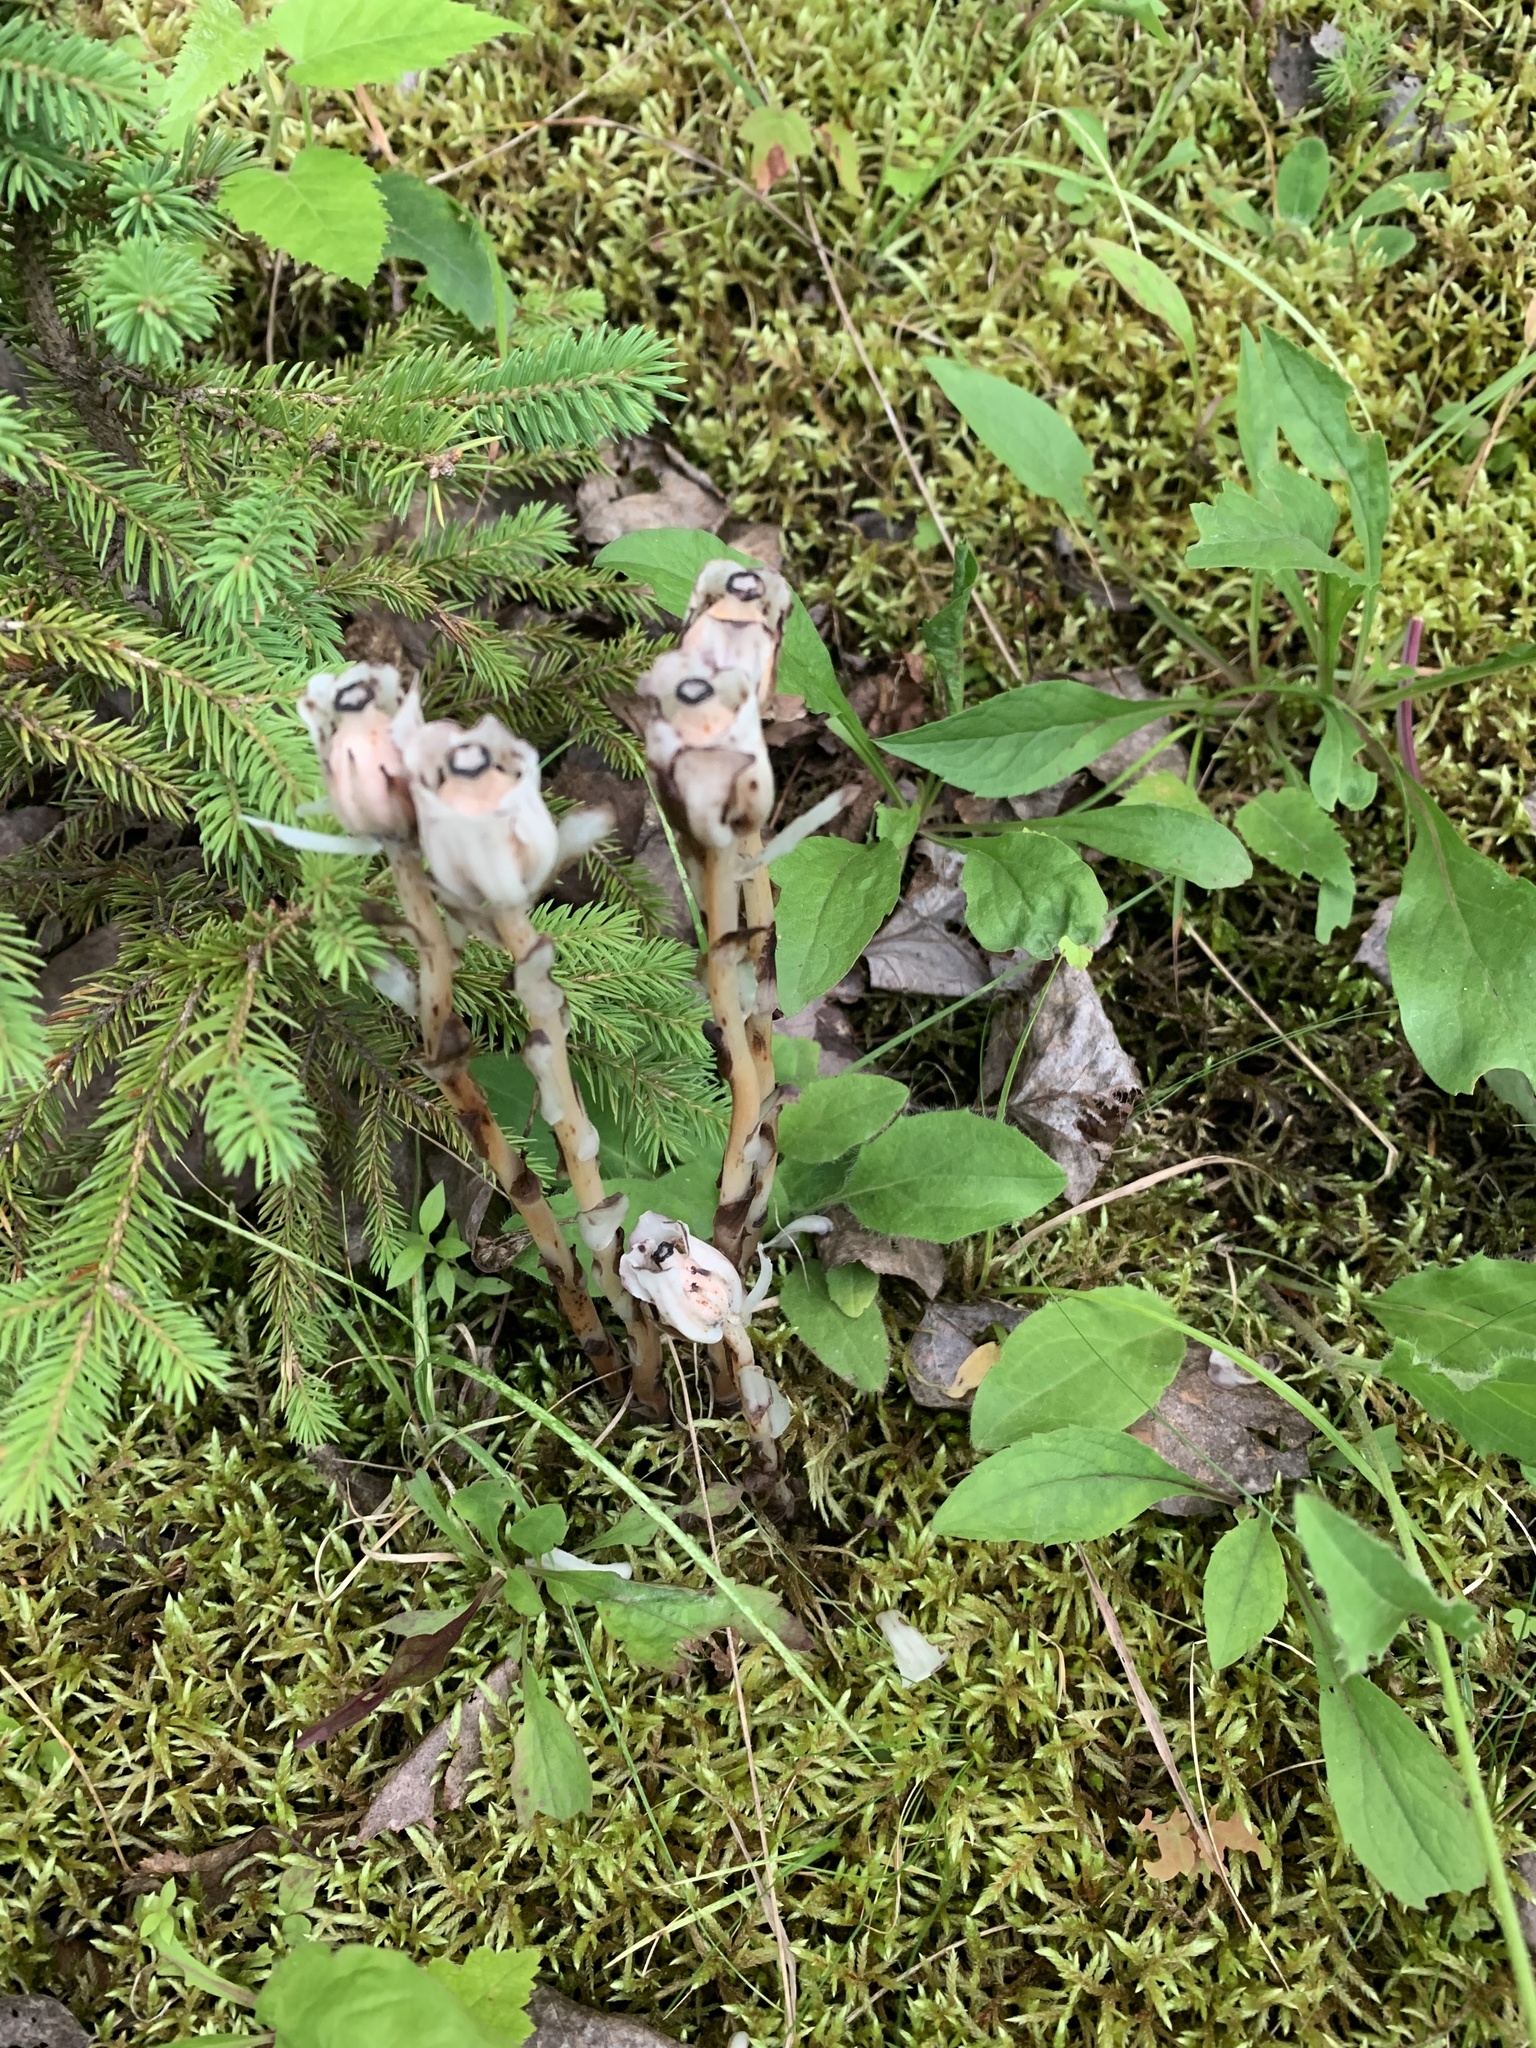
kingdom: Plantae
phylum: Tracheophyta
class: Magnoliopsida
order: Ericales
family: Ericaceae
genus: Monotropa
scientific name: Monotropa uniflora
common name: Convulsion root
